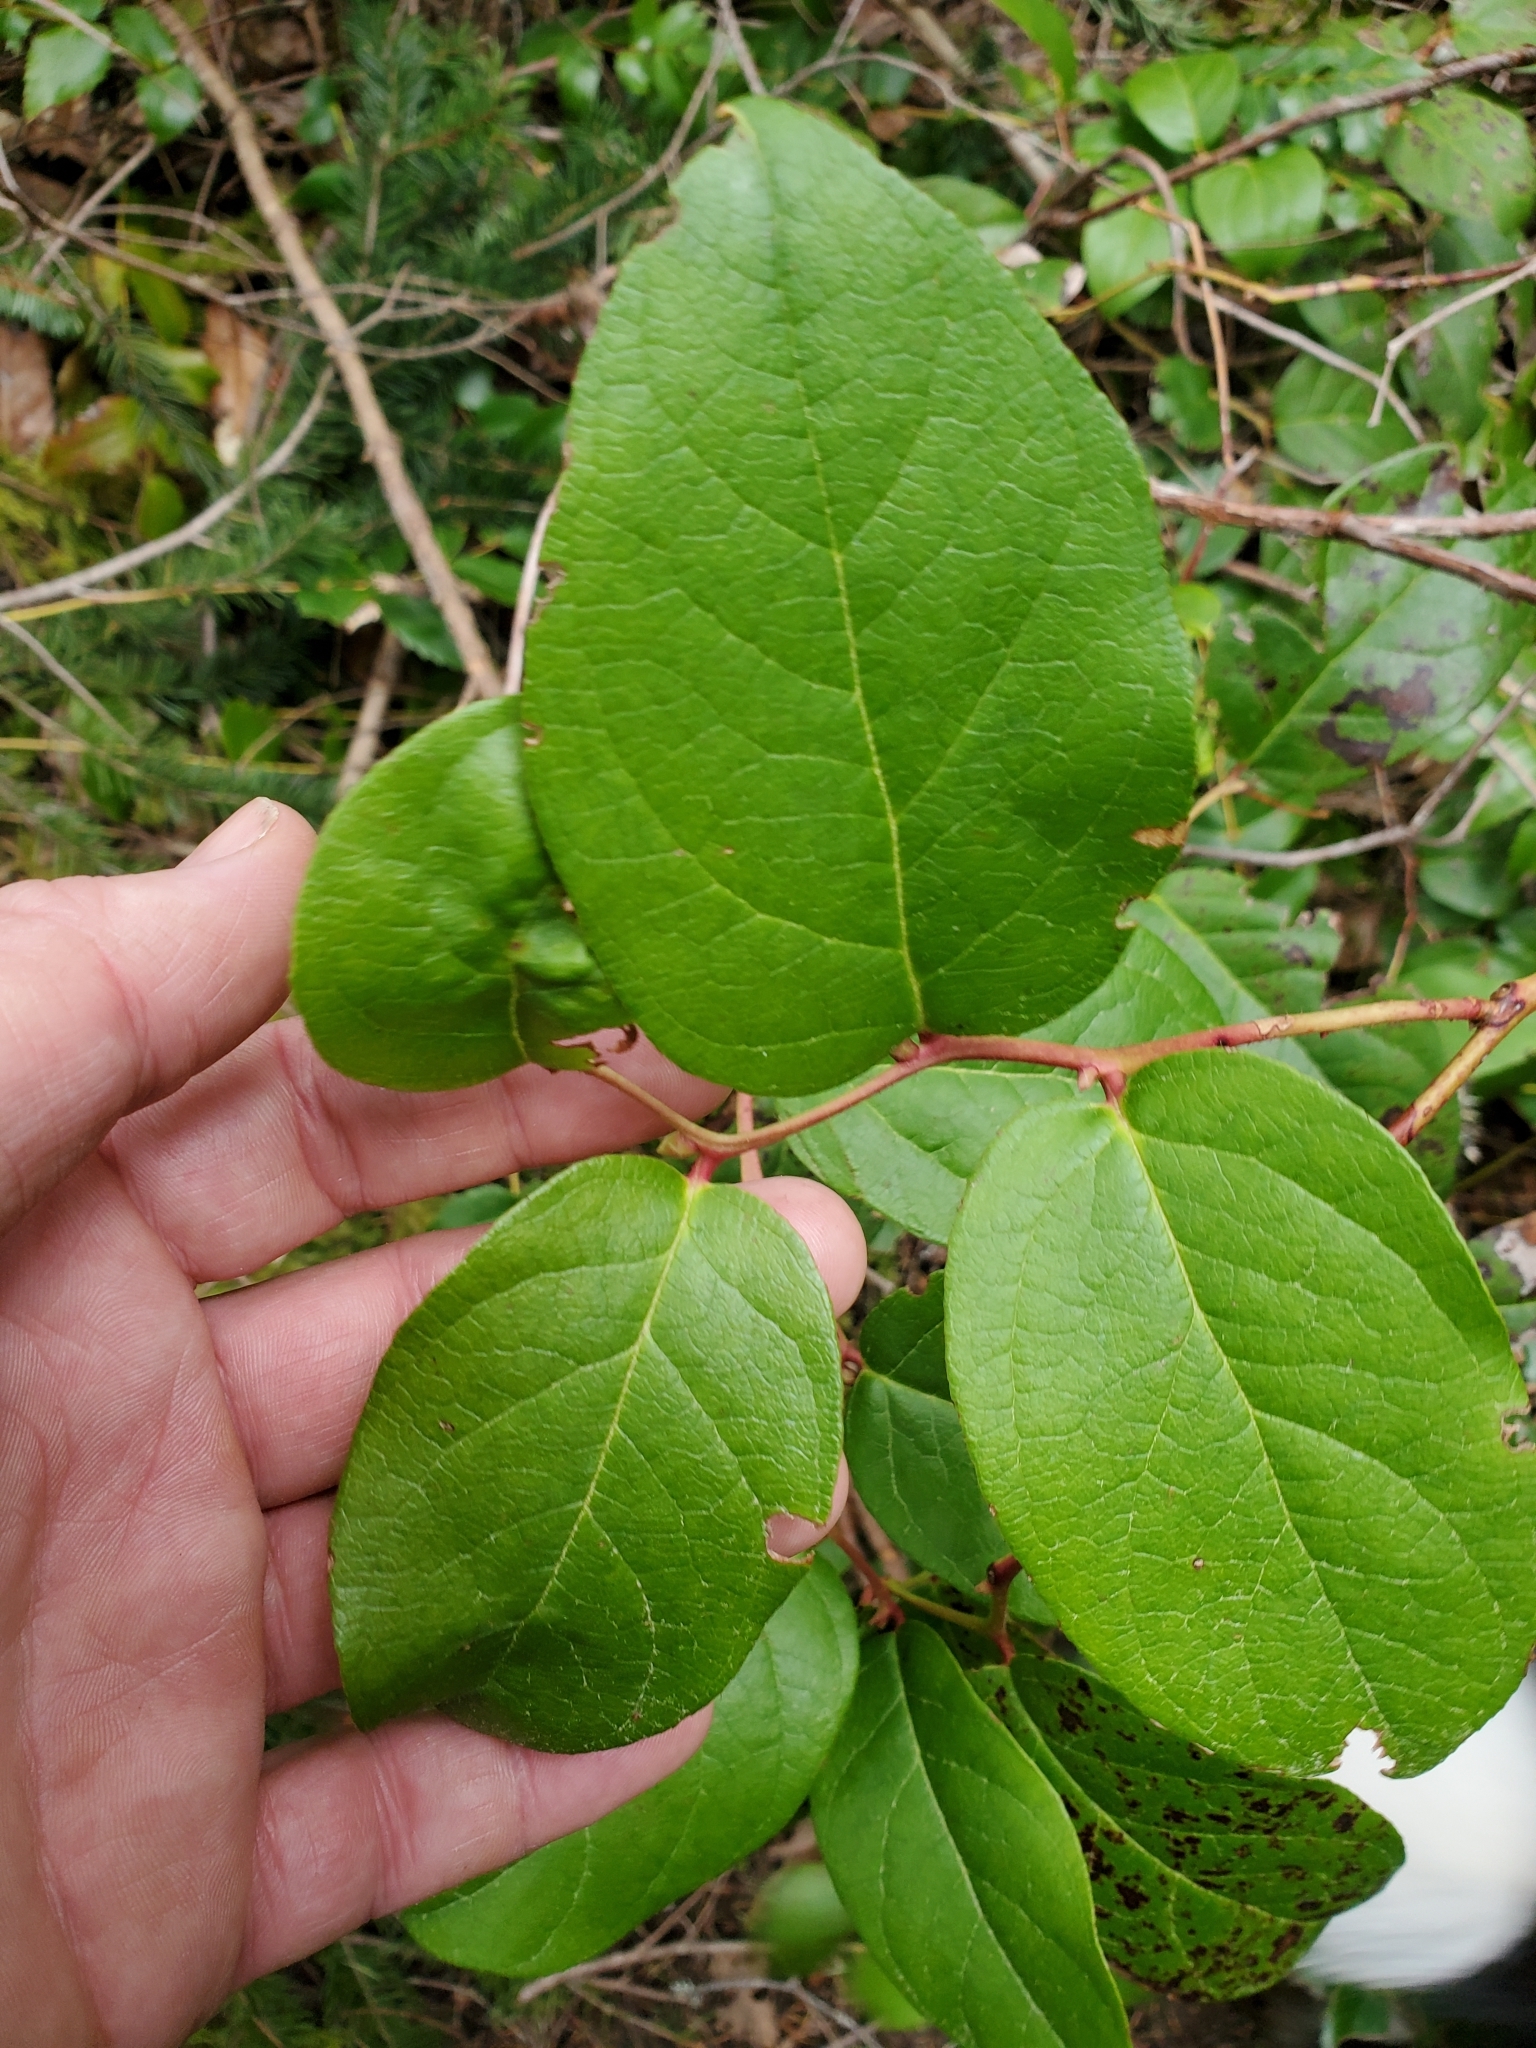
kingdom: Plantae
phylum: Tracheophyta
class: Magnoliopsida
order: Ericales
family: Ericaceae
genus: Gaultheria
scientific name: Gaultheria shallon
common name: Shallon
